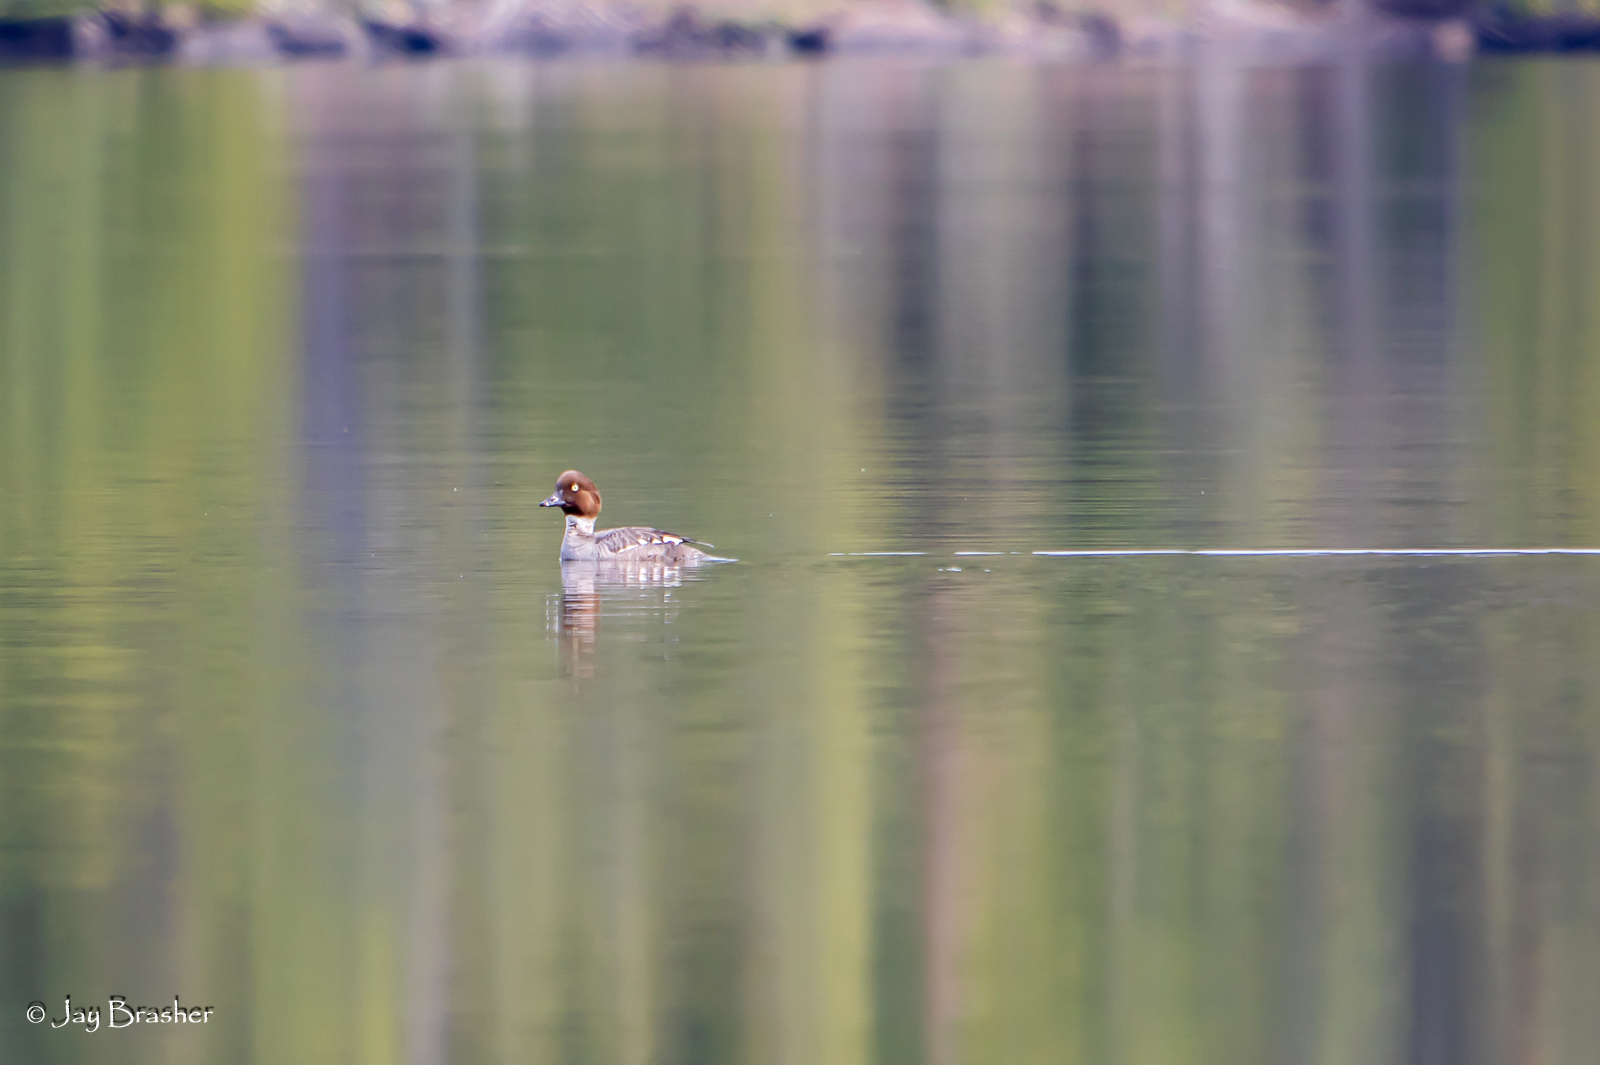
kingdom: Animalia
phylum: Chordata
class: Aves
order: Anseriformes
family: Anatidae
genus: Bucephala
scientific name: Bucephala clangula
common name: Common goldeneye
